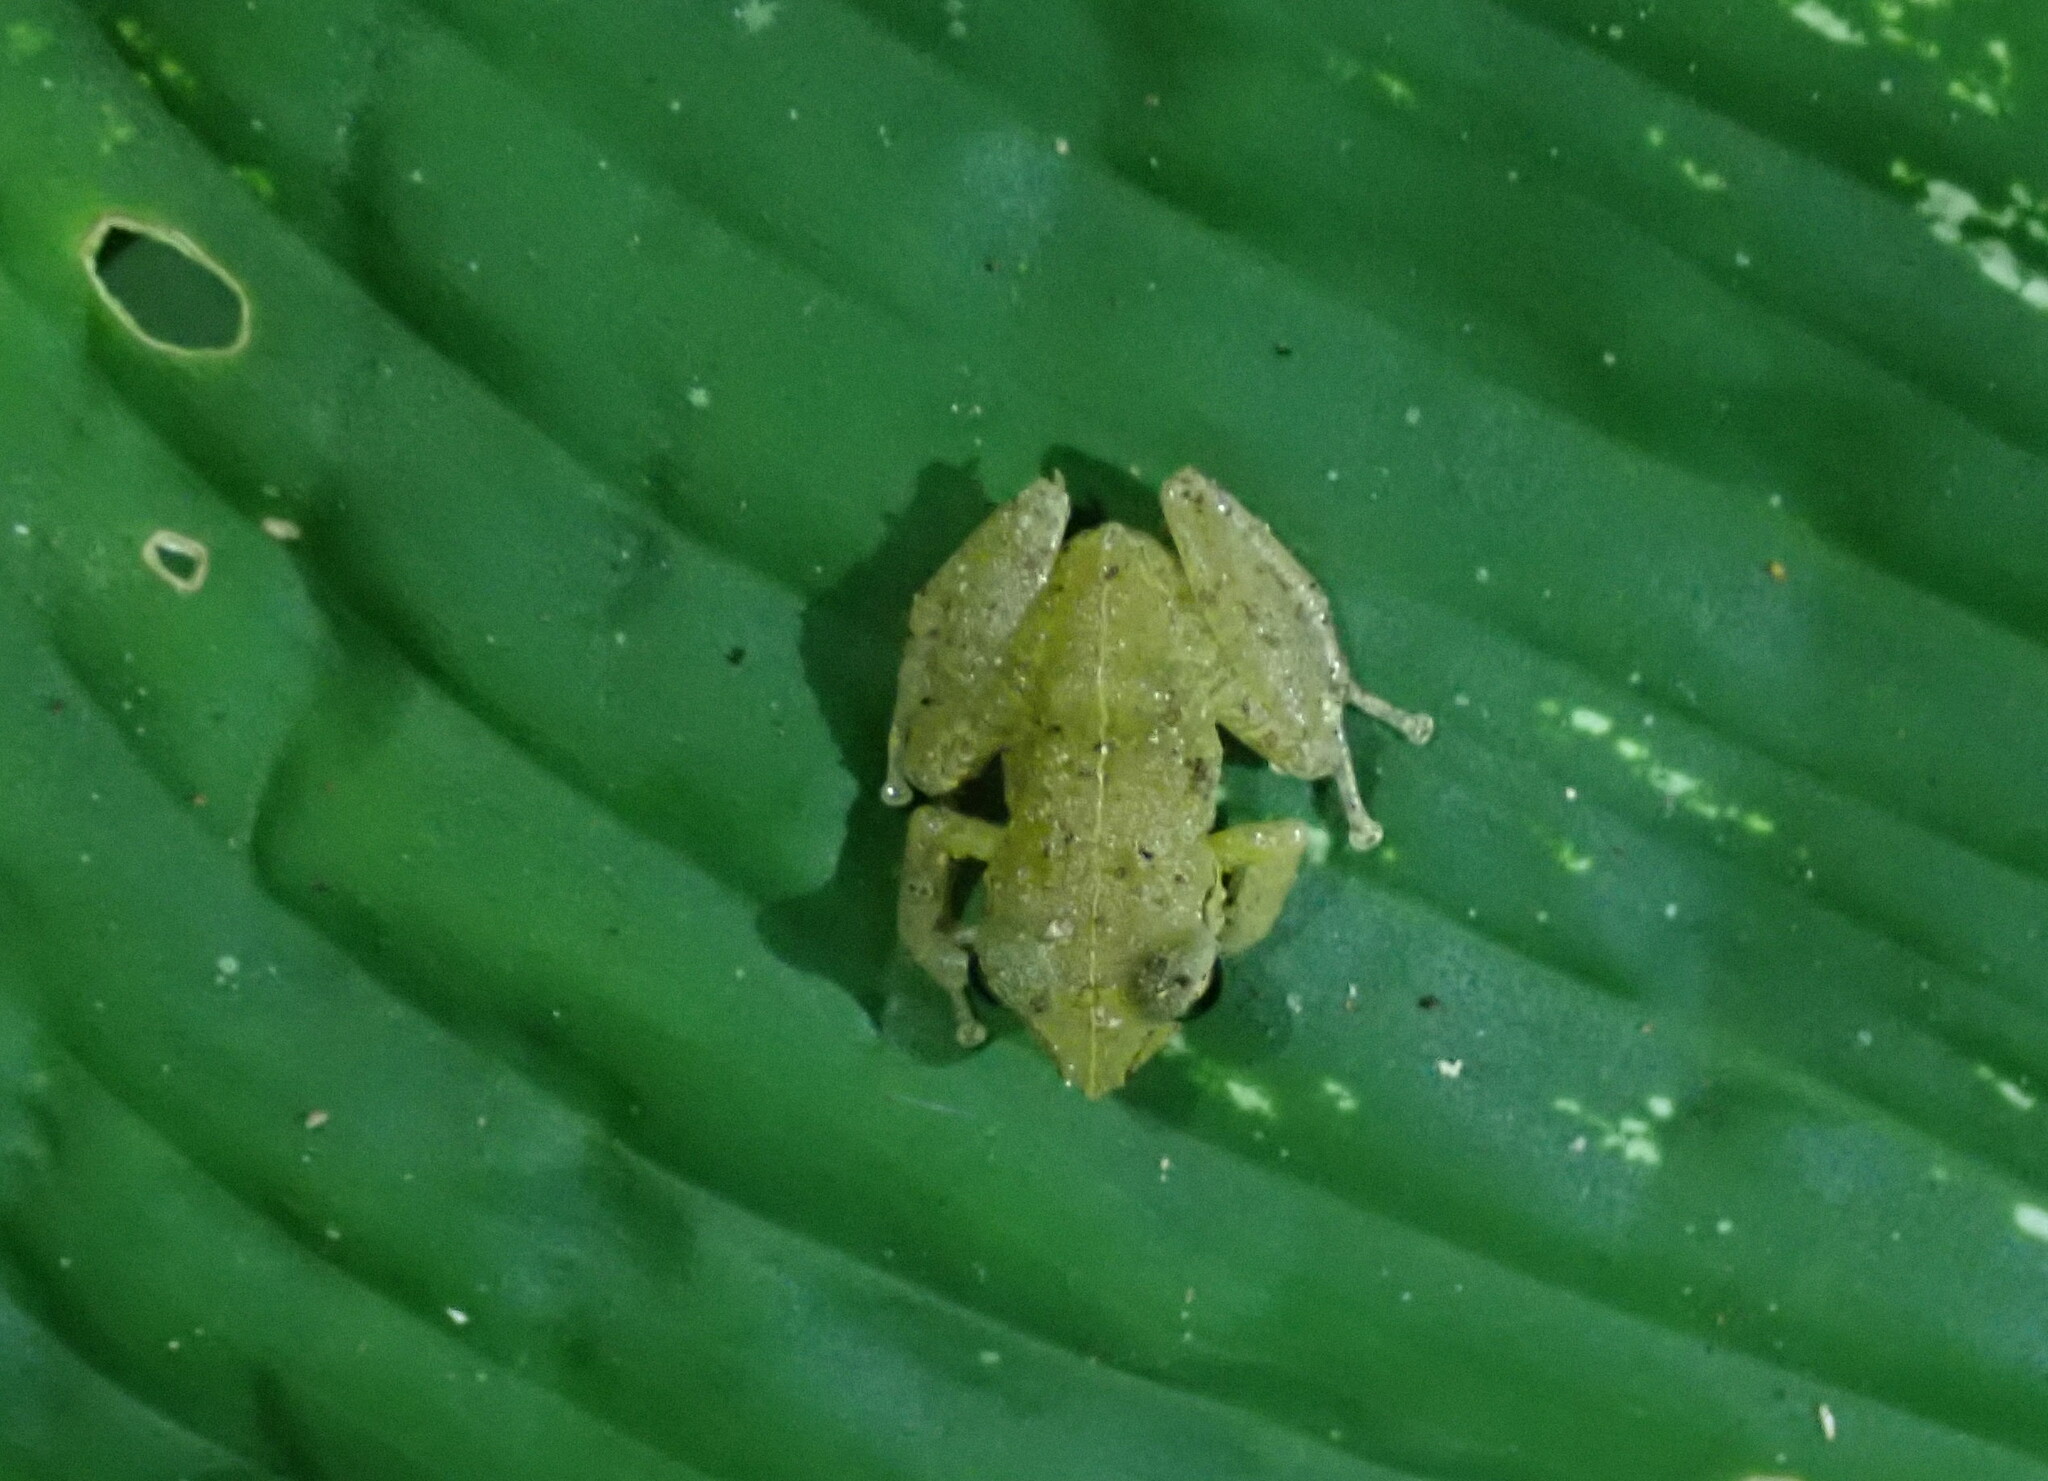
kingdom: Animalia
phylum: Chordata
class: Amphibia
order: Anura
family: Craugastoridae
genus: Pristimantis
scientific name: Pristimantis ridens
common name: Rio san juan robber frog
